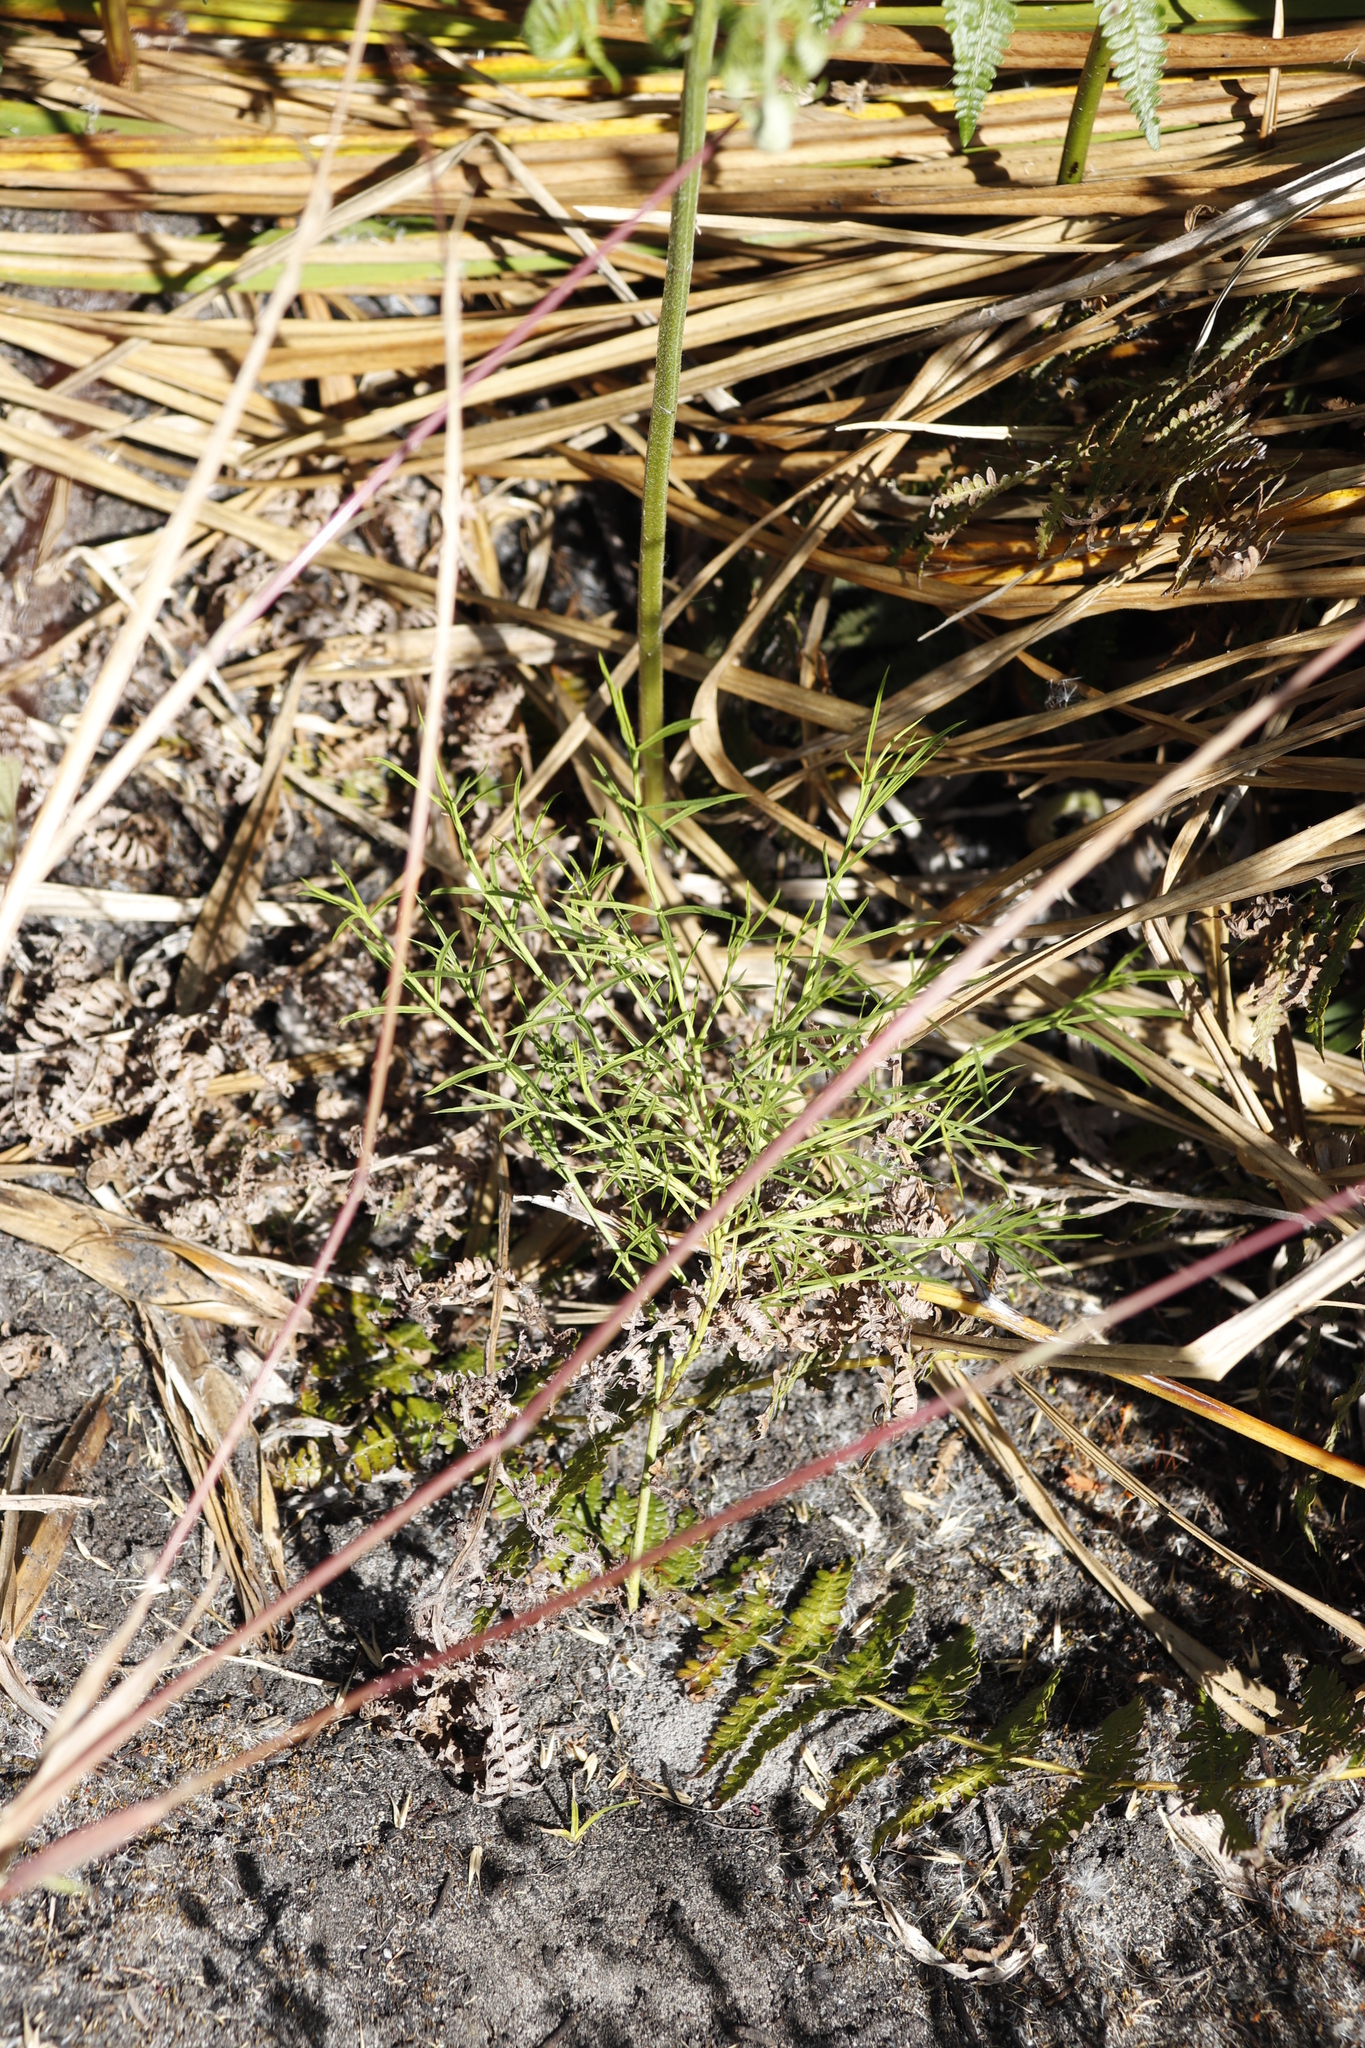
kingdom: Plantae
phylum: Tracheophyta
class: Magnoliopsida
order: Fabales
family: Fabaceae
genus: Psoralea
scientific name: Psoralea fascicularis
